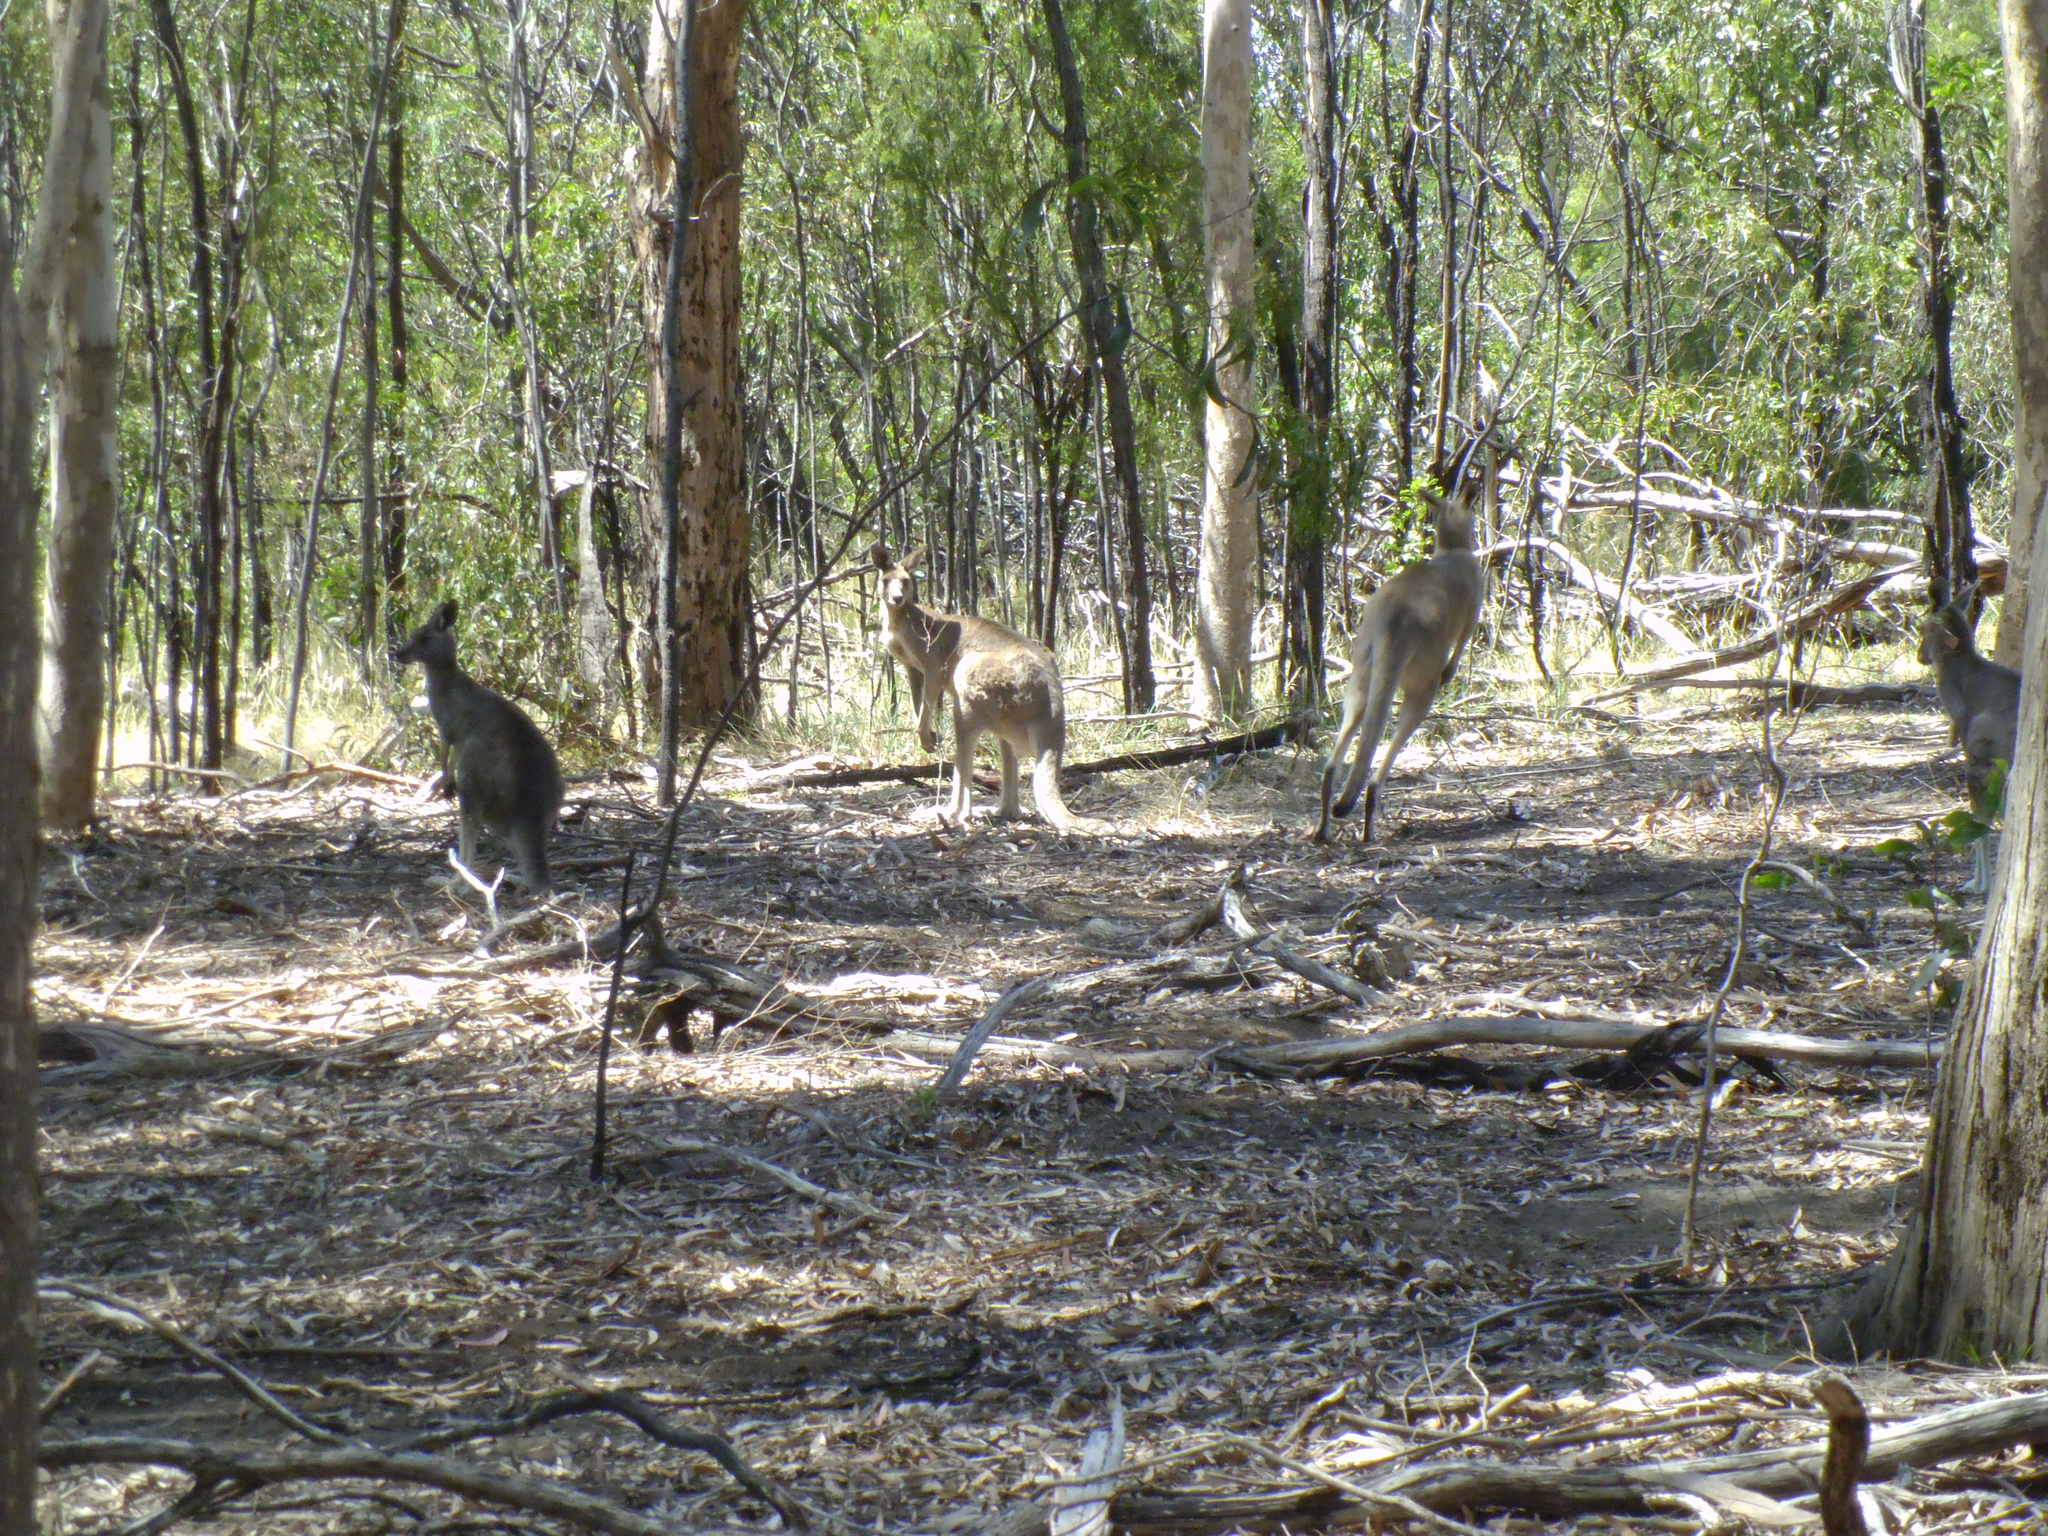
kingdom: Animalia
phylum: Chordata
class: Mammalia
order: Diprotodontia
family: Macropodidae
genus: Macropus
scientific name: Macropus giganteus
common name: Eastern grey kangaroo
